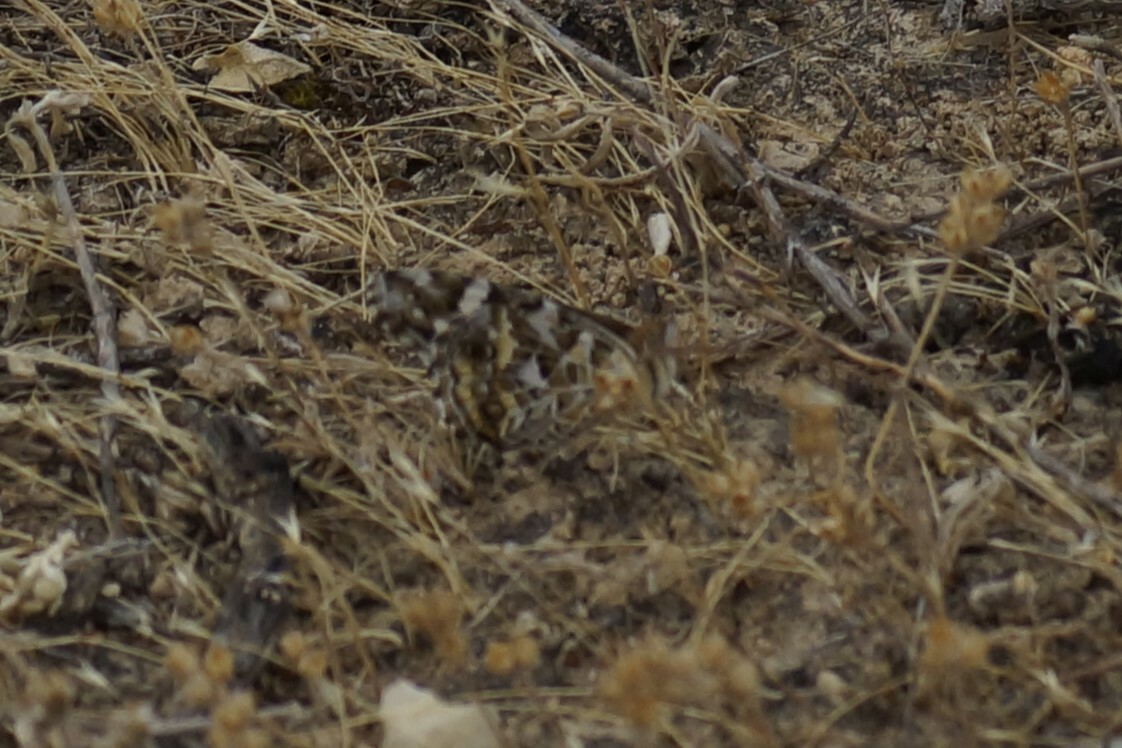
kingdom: Animalia
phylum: Arthropoda
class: Insecta
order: Lepidoptera
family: Nymphalidae
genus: Vanessa
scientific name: Vanessa kershawi
